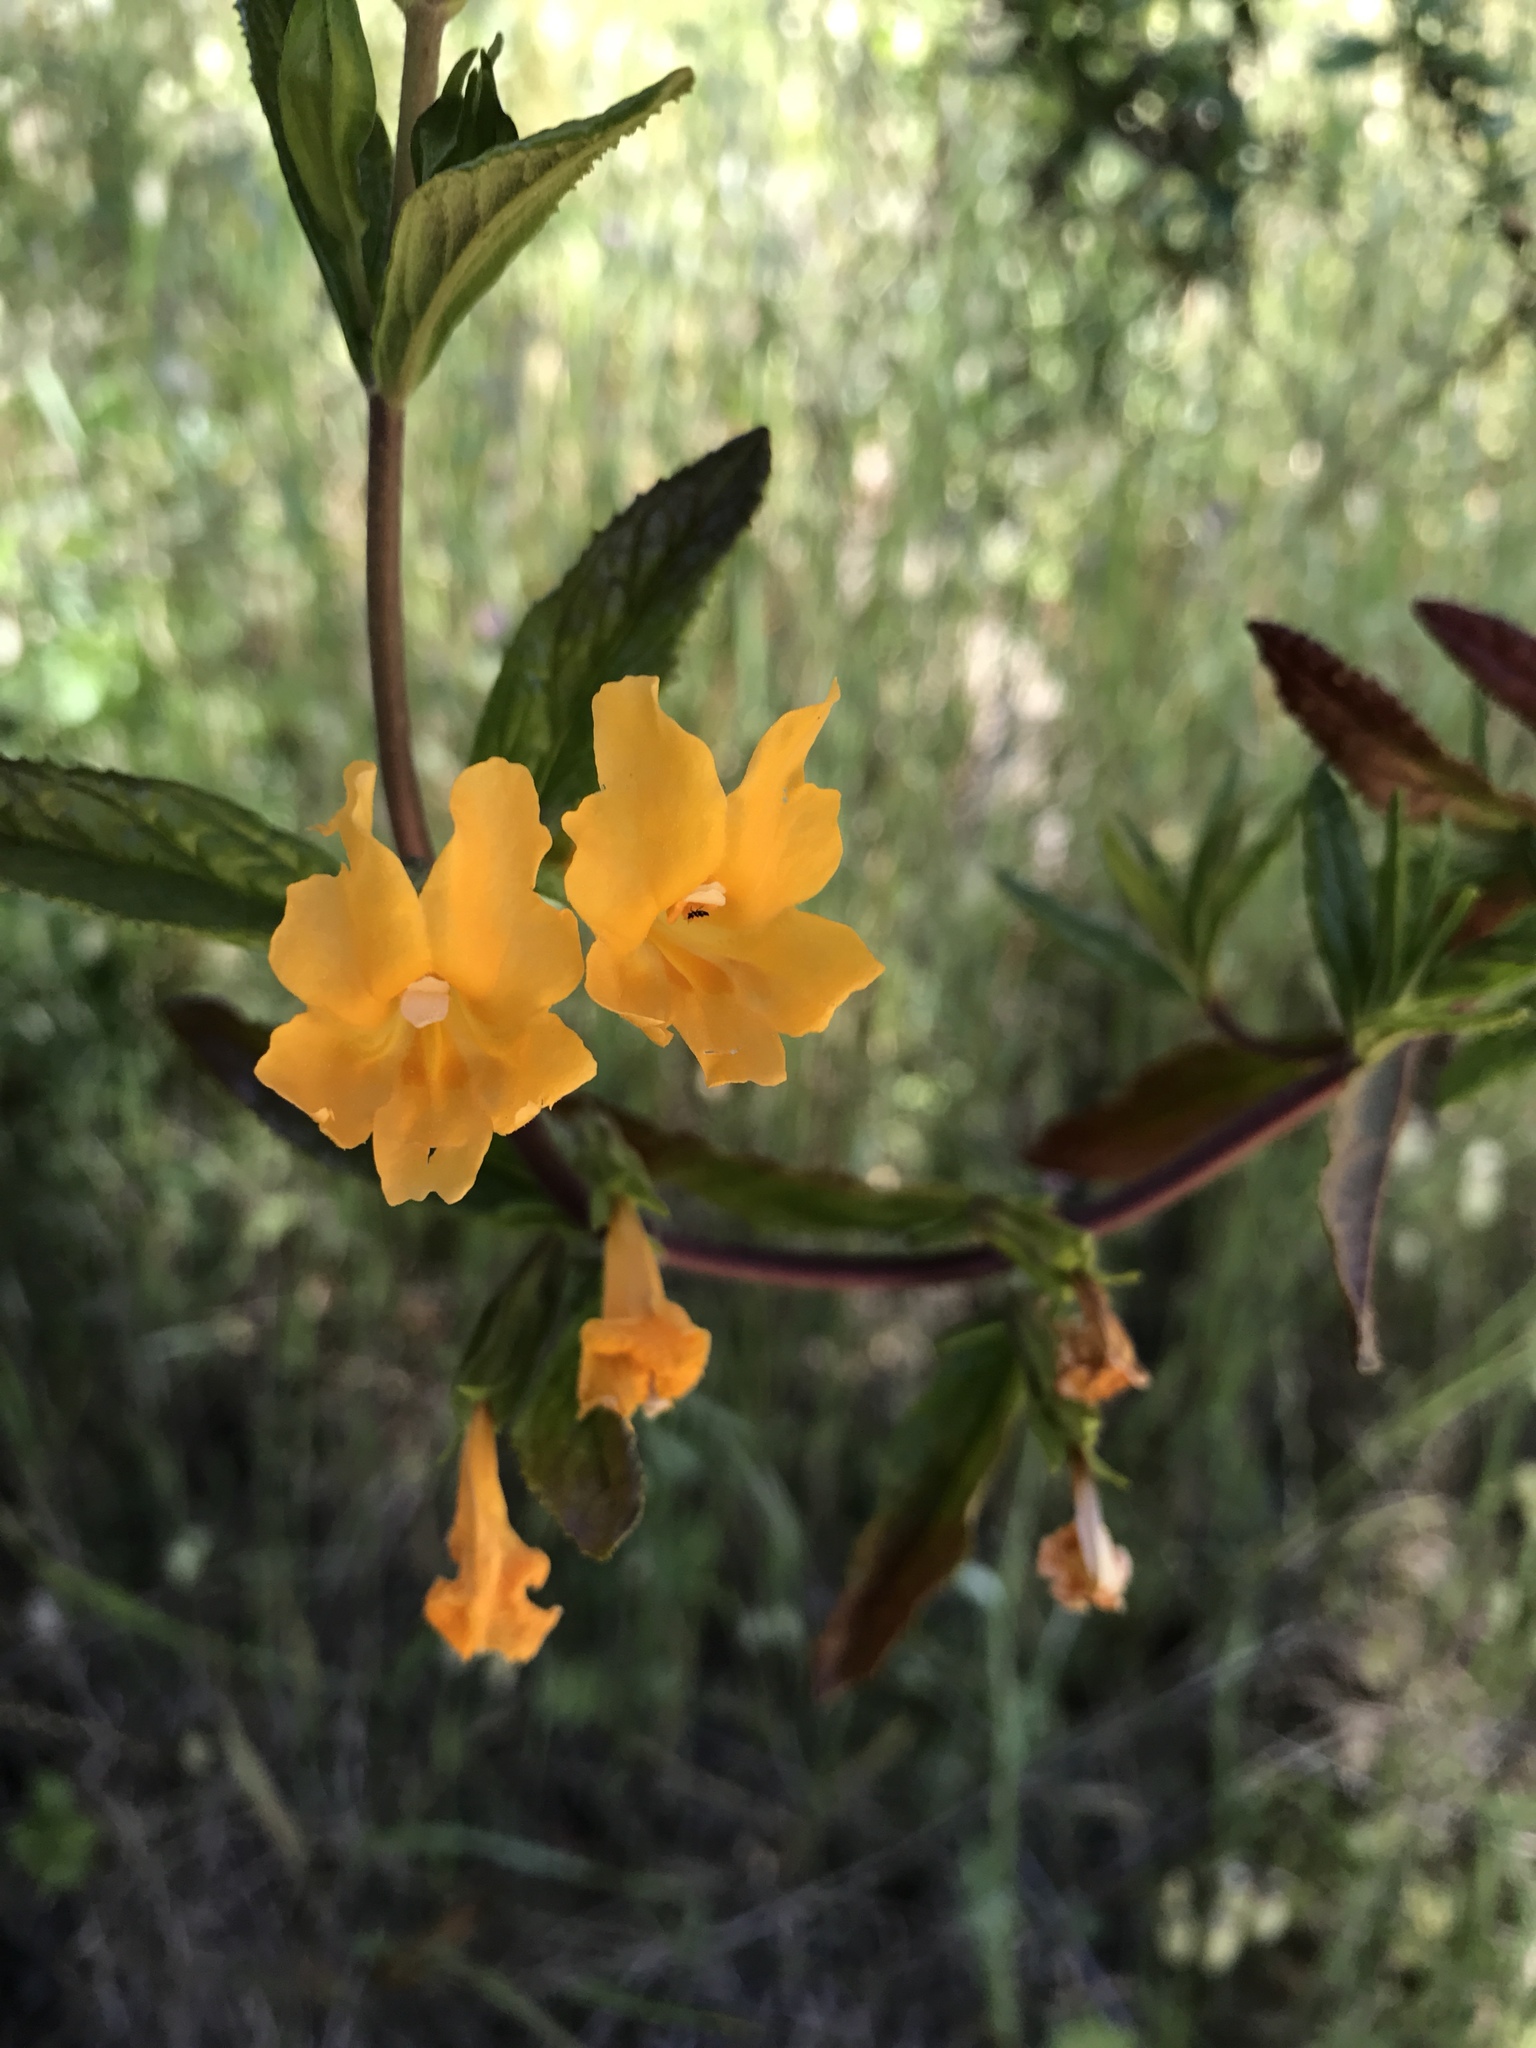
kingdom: Plantae
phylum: Tracheophyta
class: Magnoliopsida
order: Lamiales
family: Phrymaceae
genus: Diplacus
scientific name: Diplacus aurantiacus
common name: Bush monkey-flower
